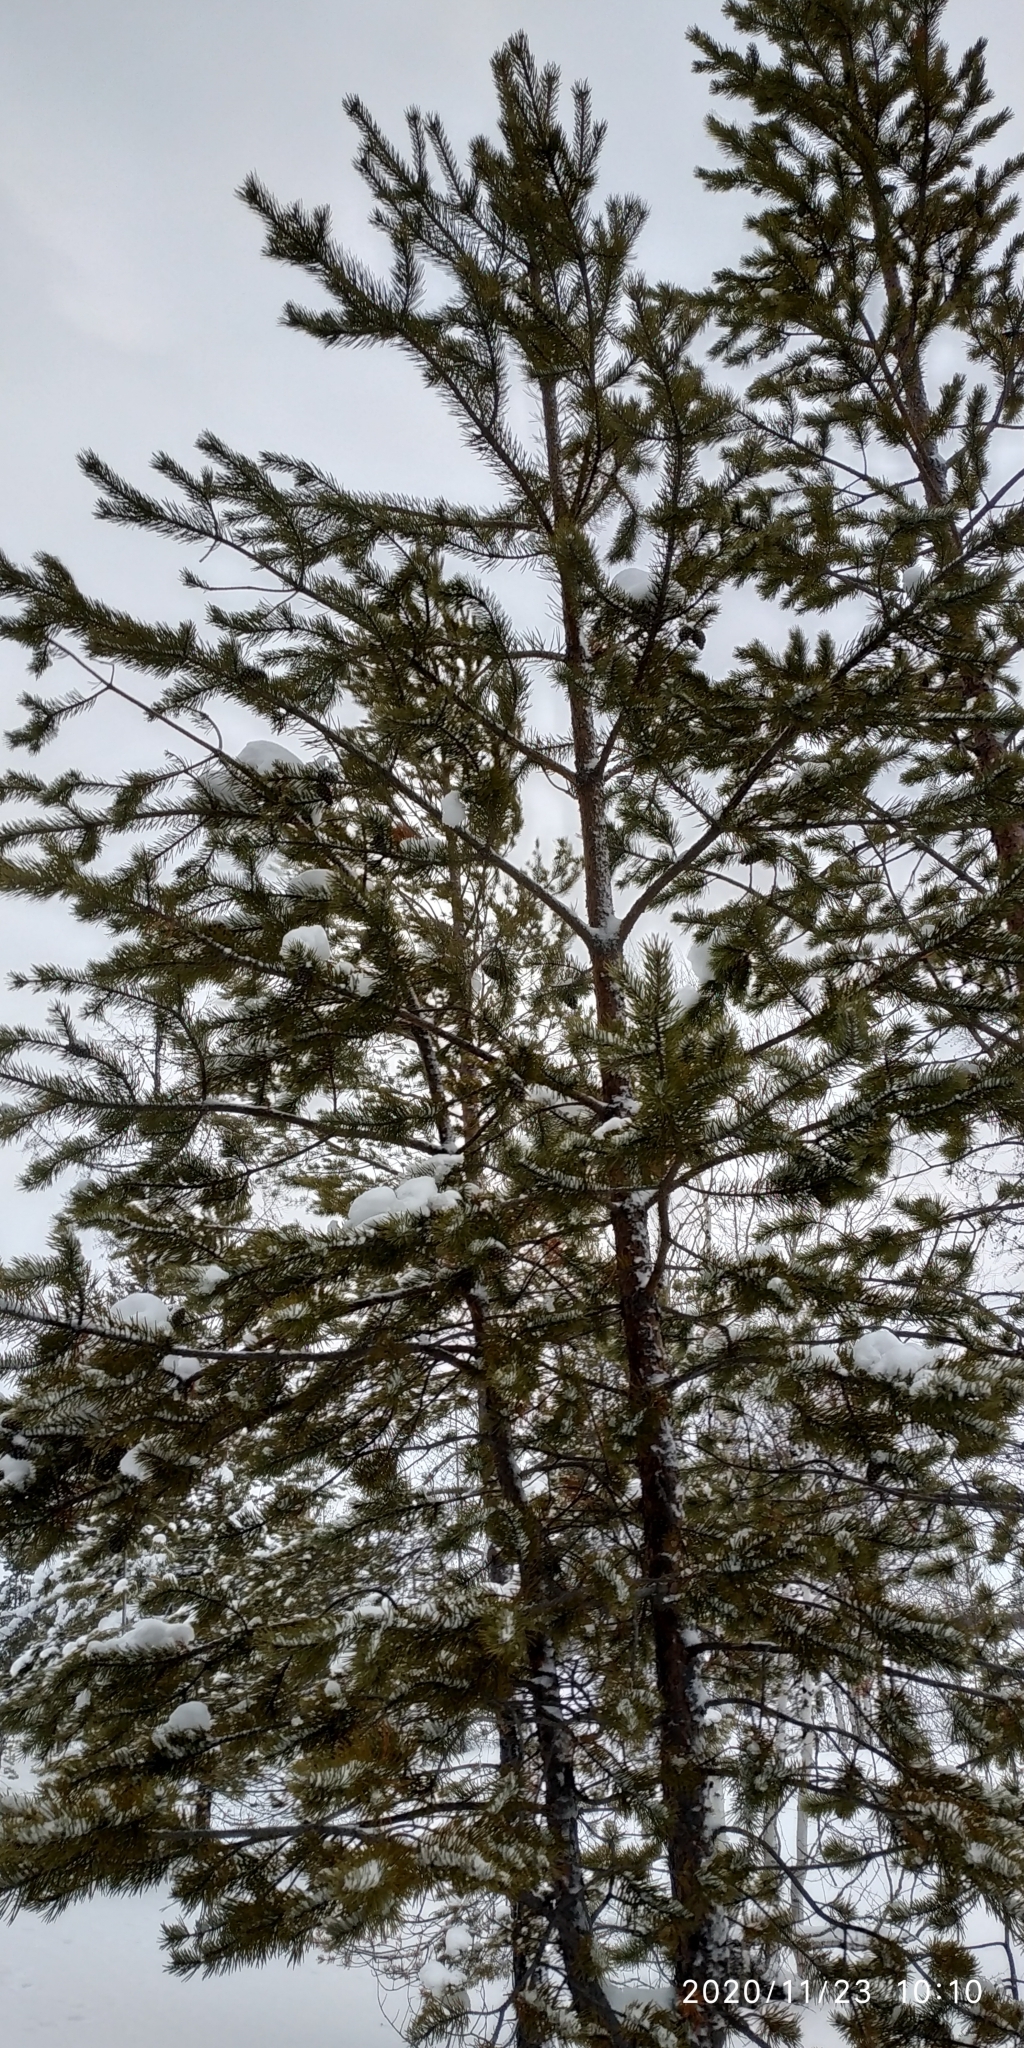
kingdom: Plantae
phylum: Tracheophyta
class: Pinopsida
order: Pinales
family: Pinaceae
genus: Pinus
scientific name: Pinus sylvestris
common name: Scots pine
